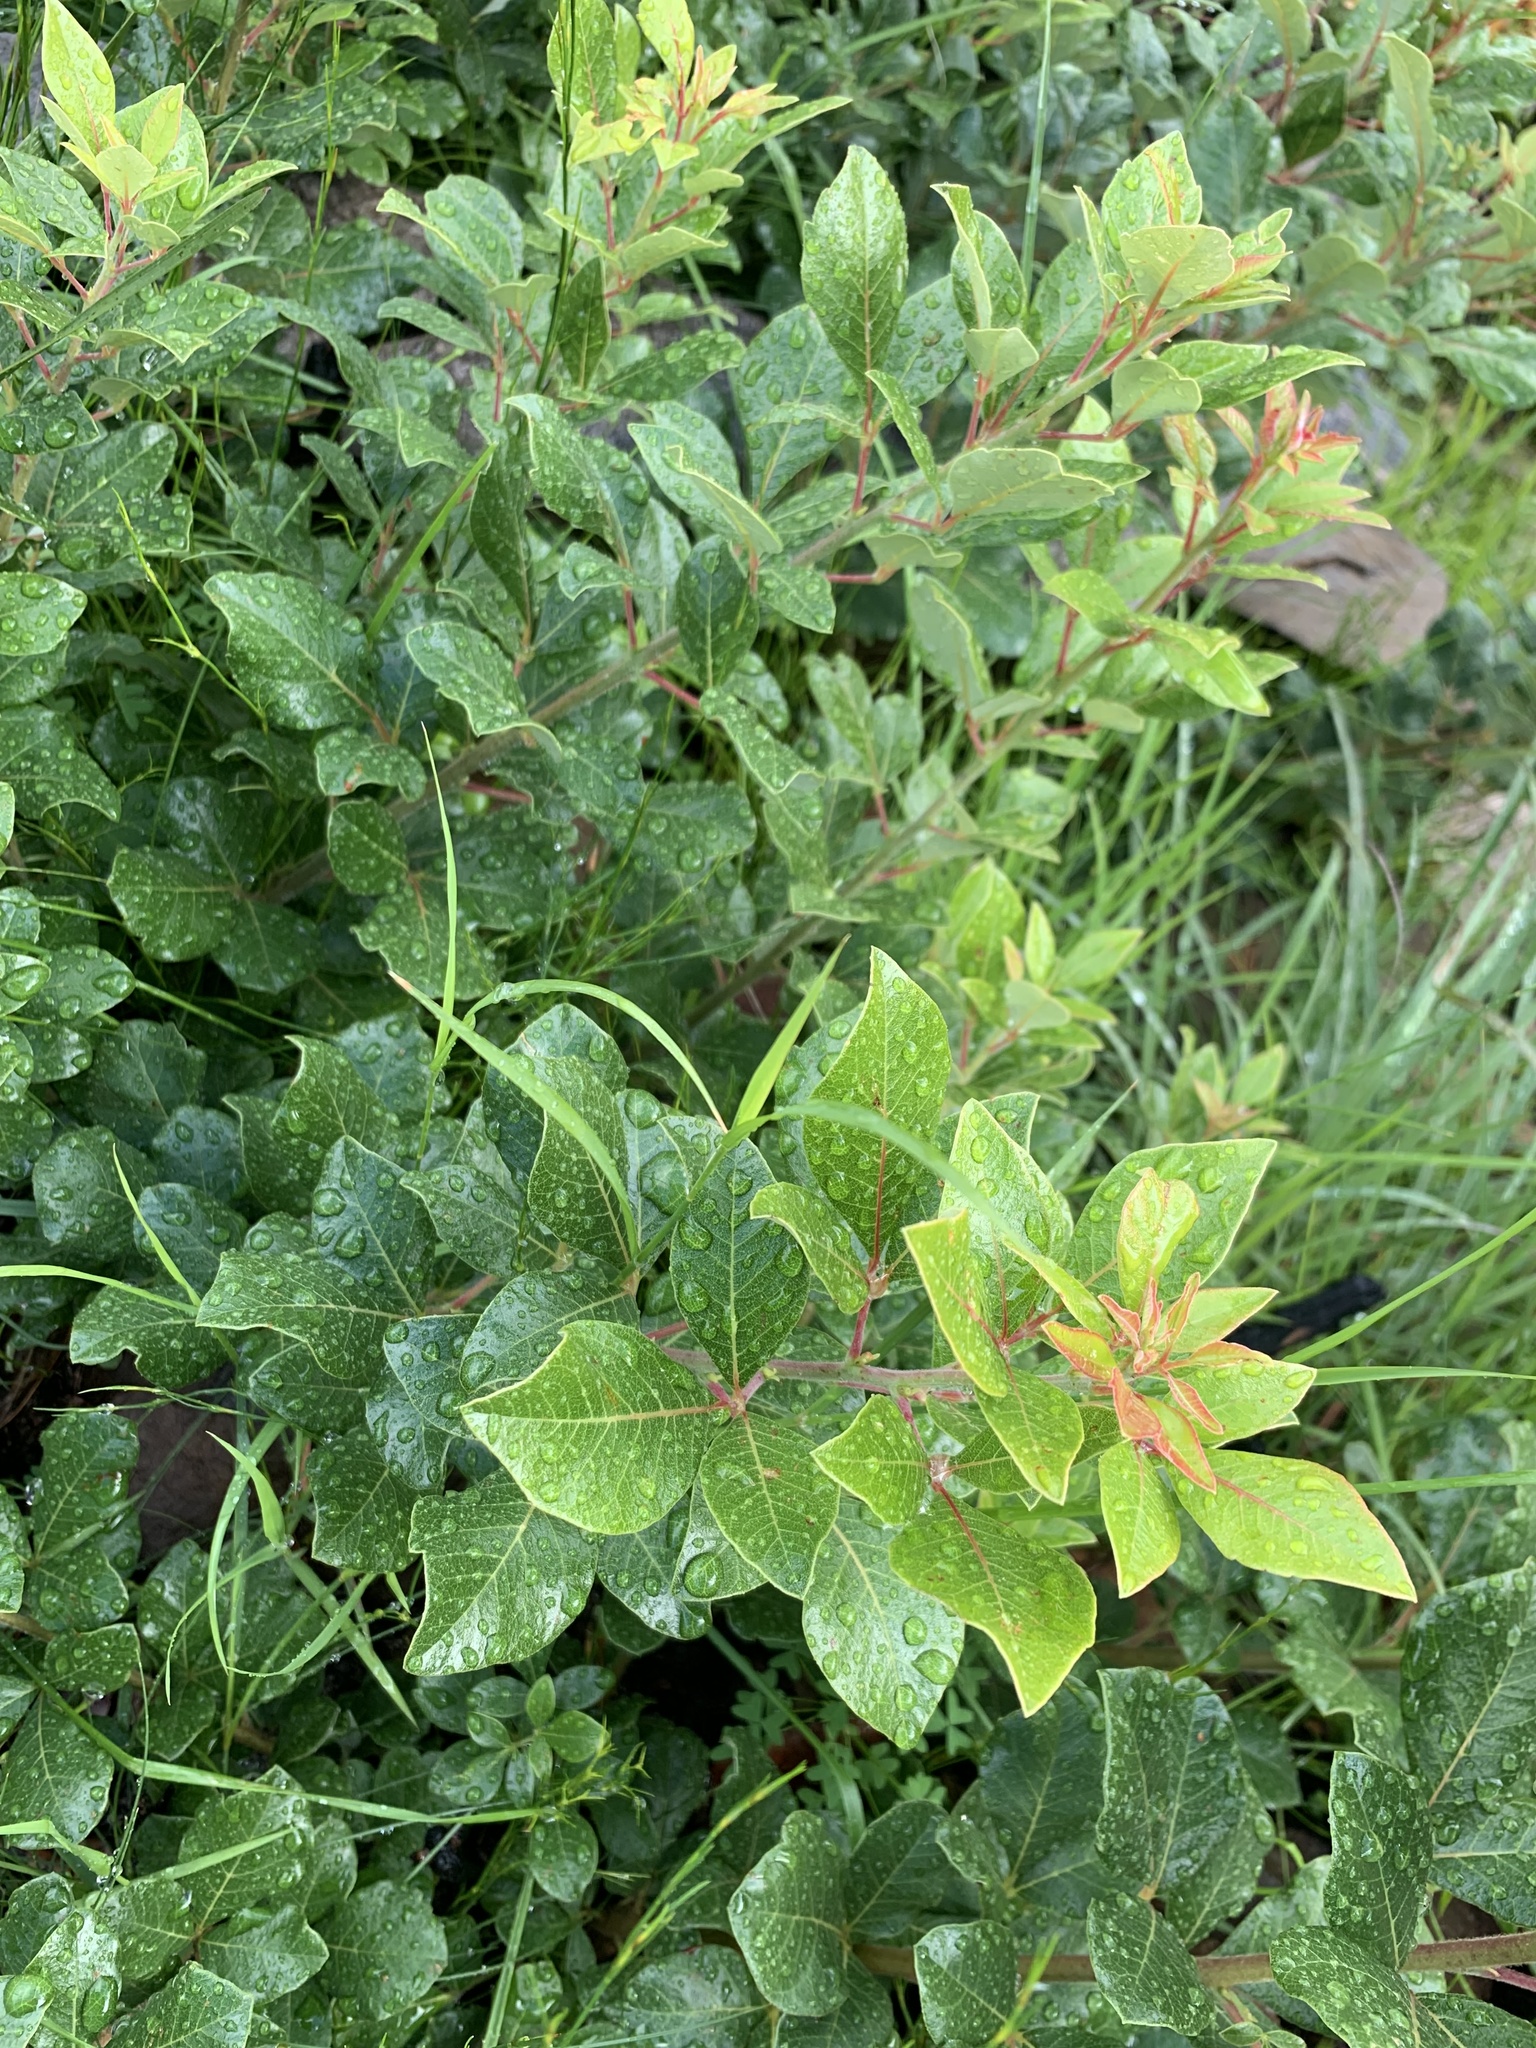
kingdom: Plantae
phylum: Tracheophyta
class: Magnoliopsida
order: Sapindales
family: Anacardiaceae
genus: Searsia
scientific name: Searsia tomentosa
